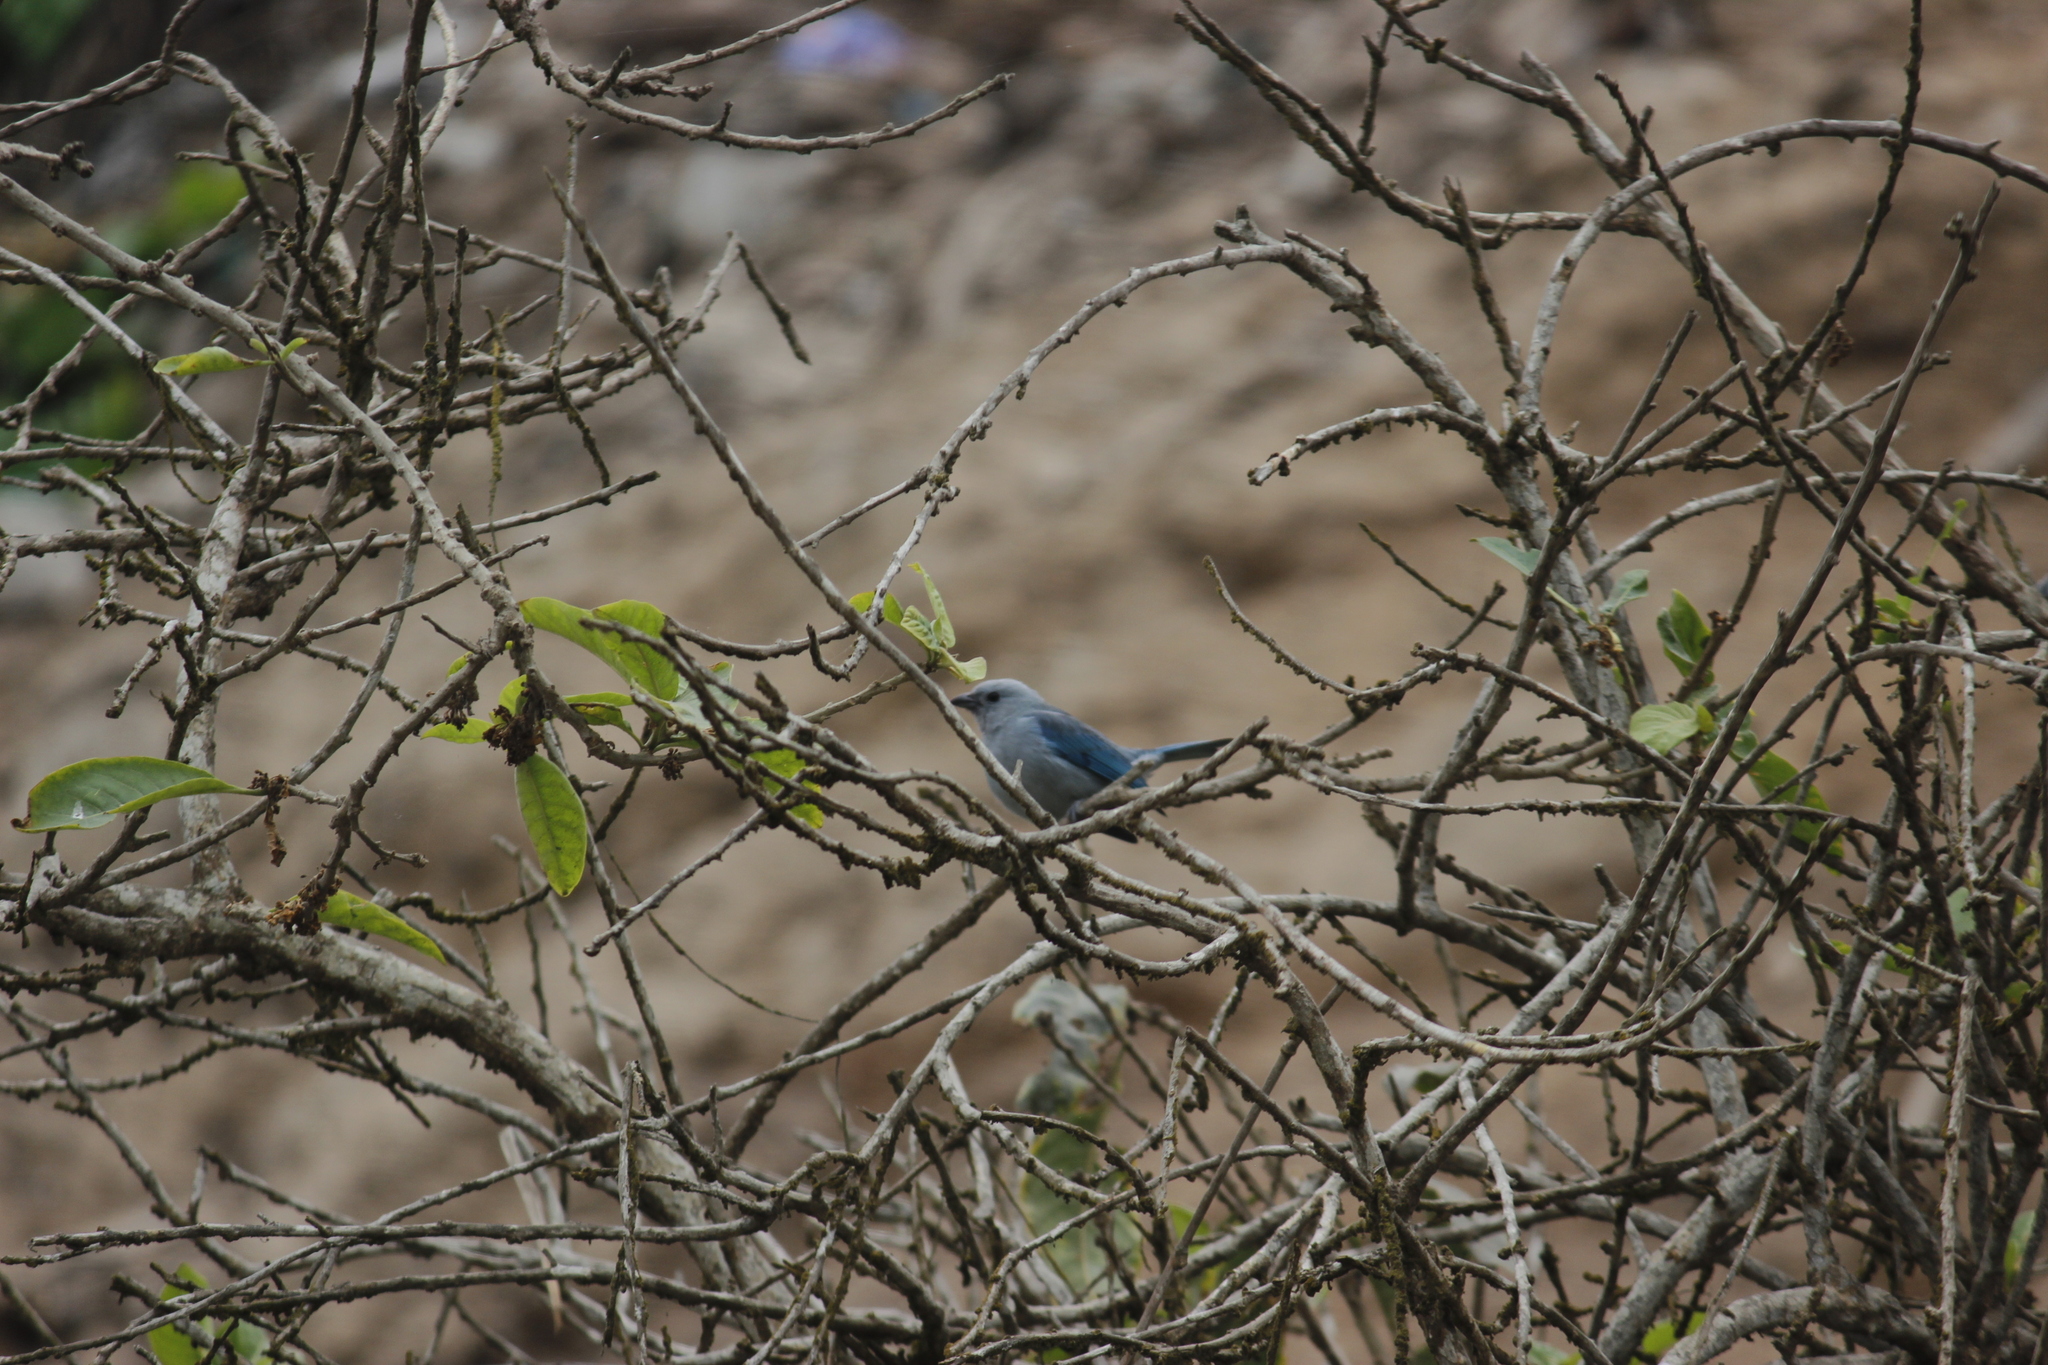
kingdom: Animalia
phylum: Chordata
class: Aves
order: Passeriformes
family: Thraupidae
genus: Thraupis
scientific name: Thraupis episcopus
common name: Blue-grey tanager
